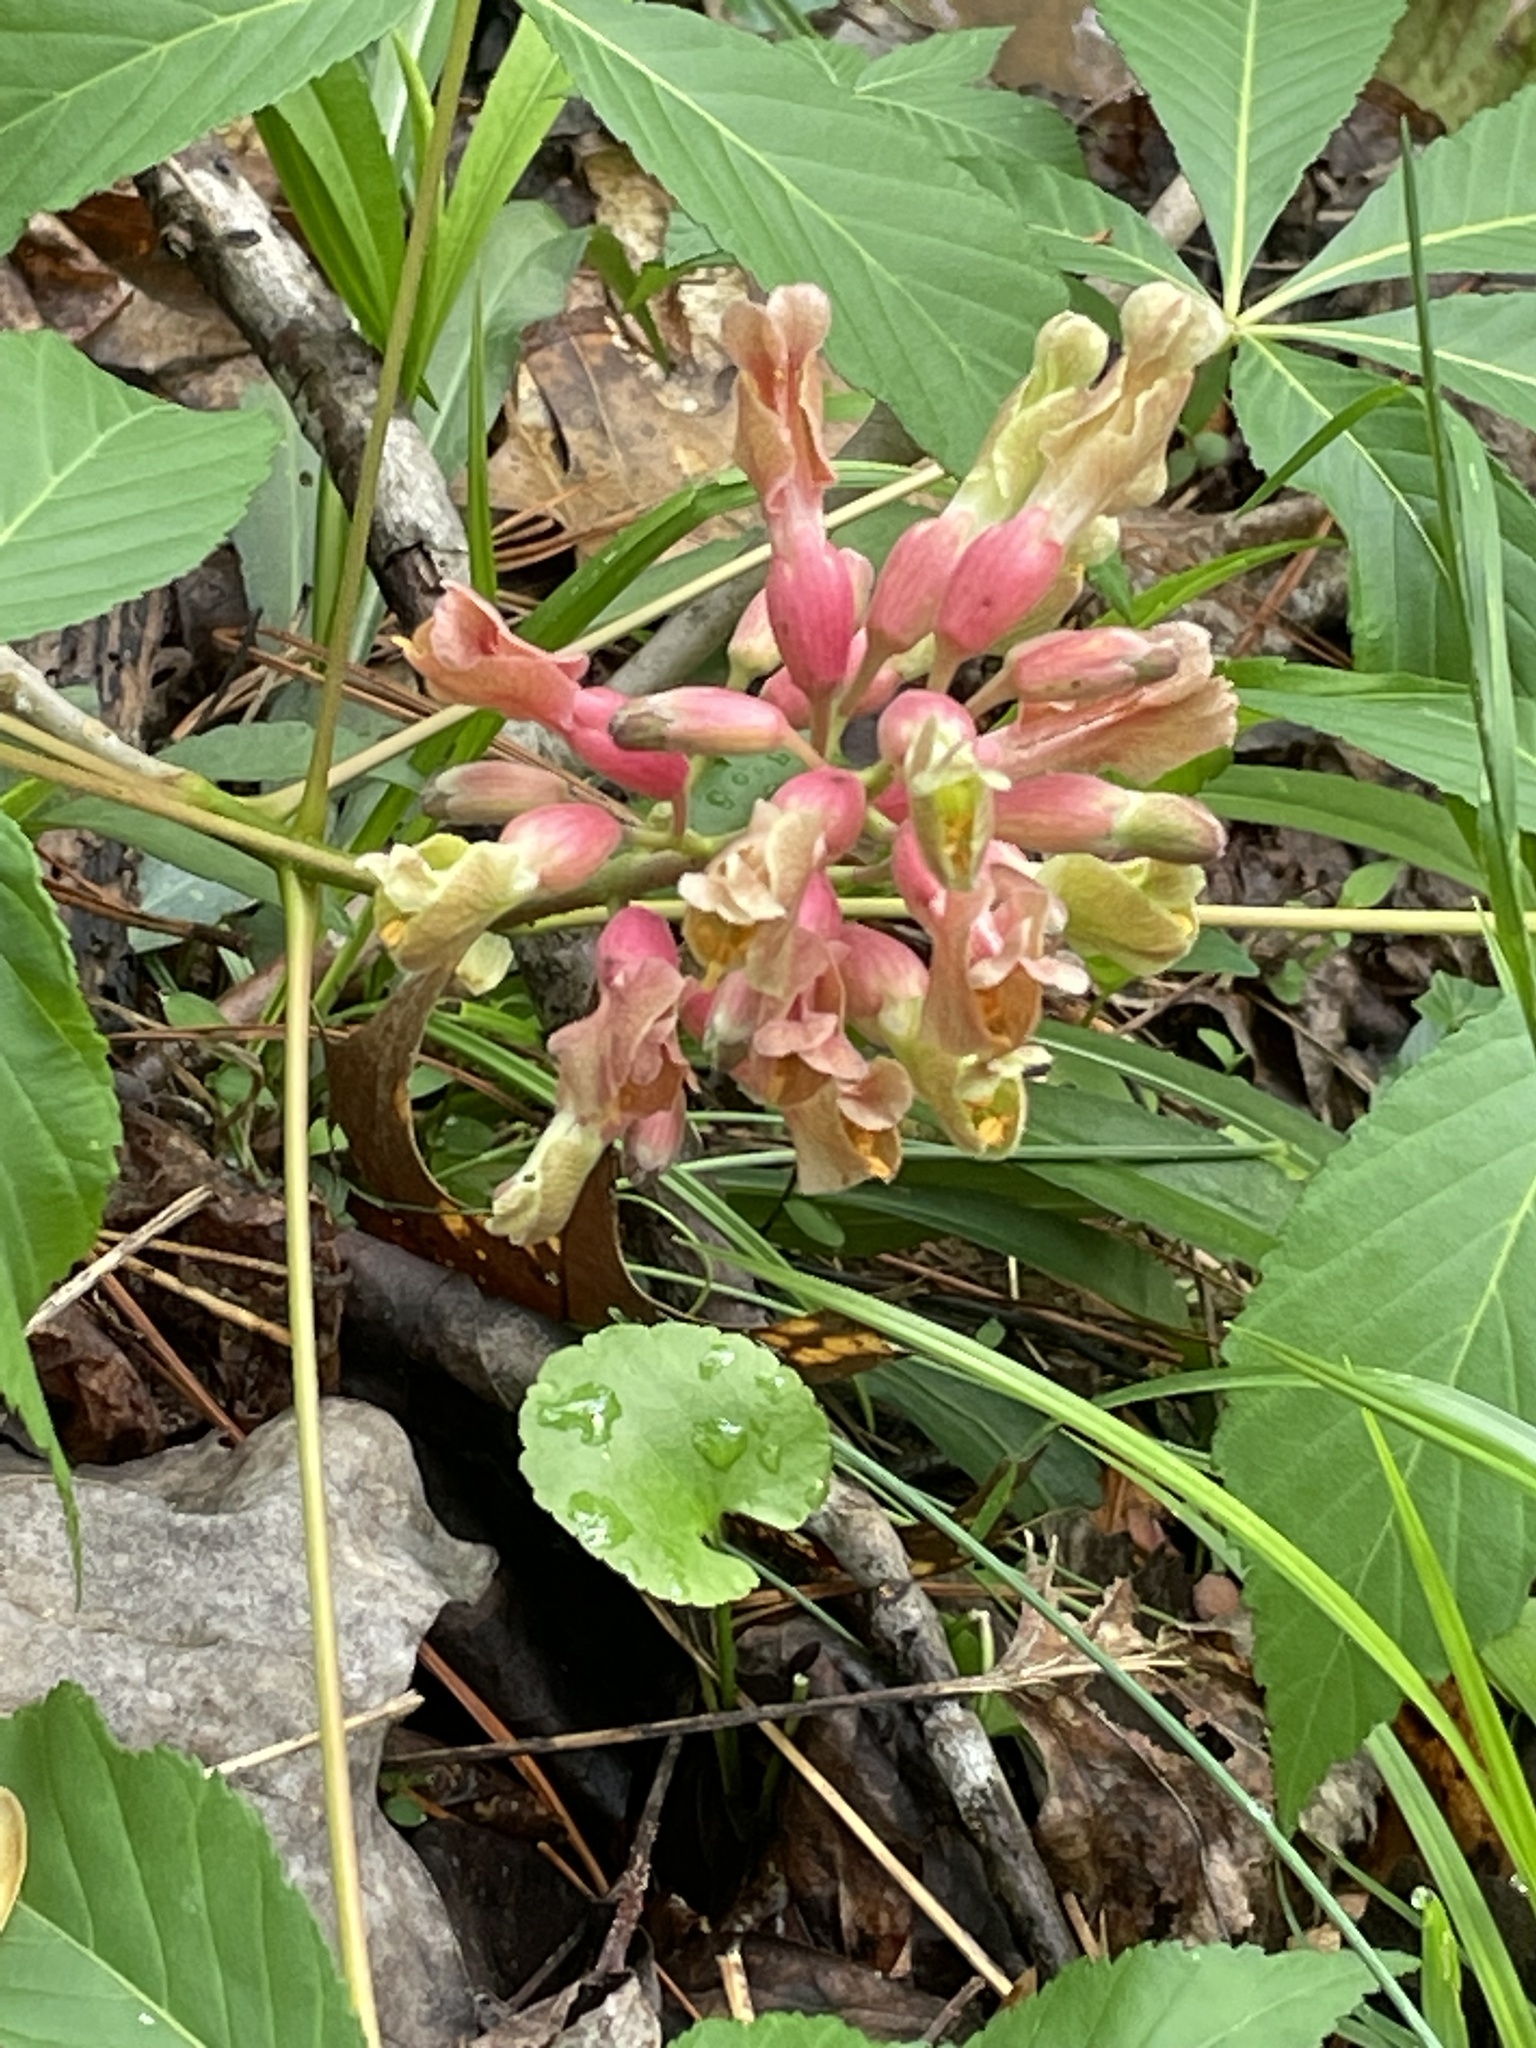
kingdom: Plantae
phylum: Tracheophyta
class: Magnoliopsida
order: Sapindales
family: Sapindaceae
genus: Aesculus
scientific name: Aesculus sylvatica
